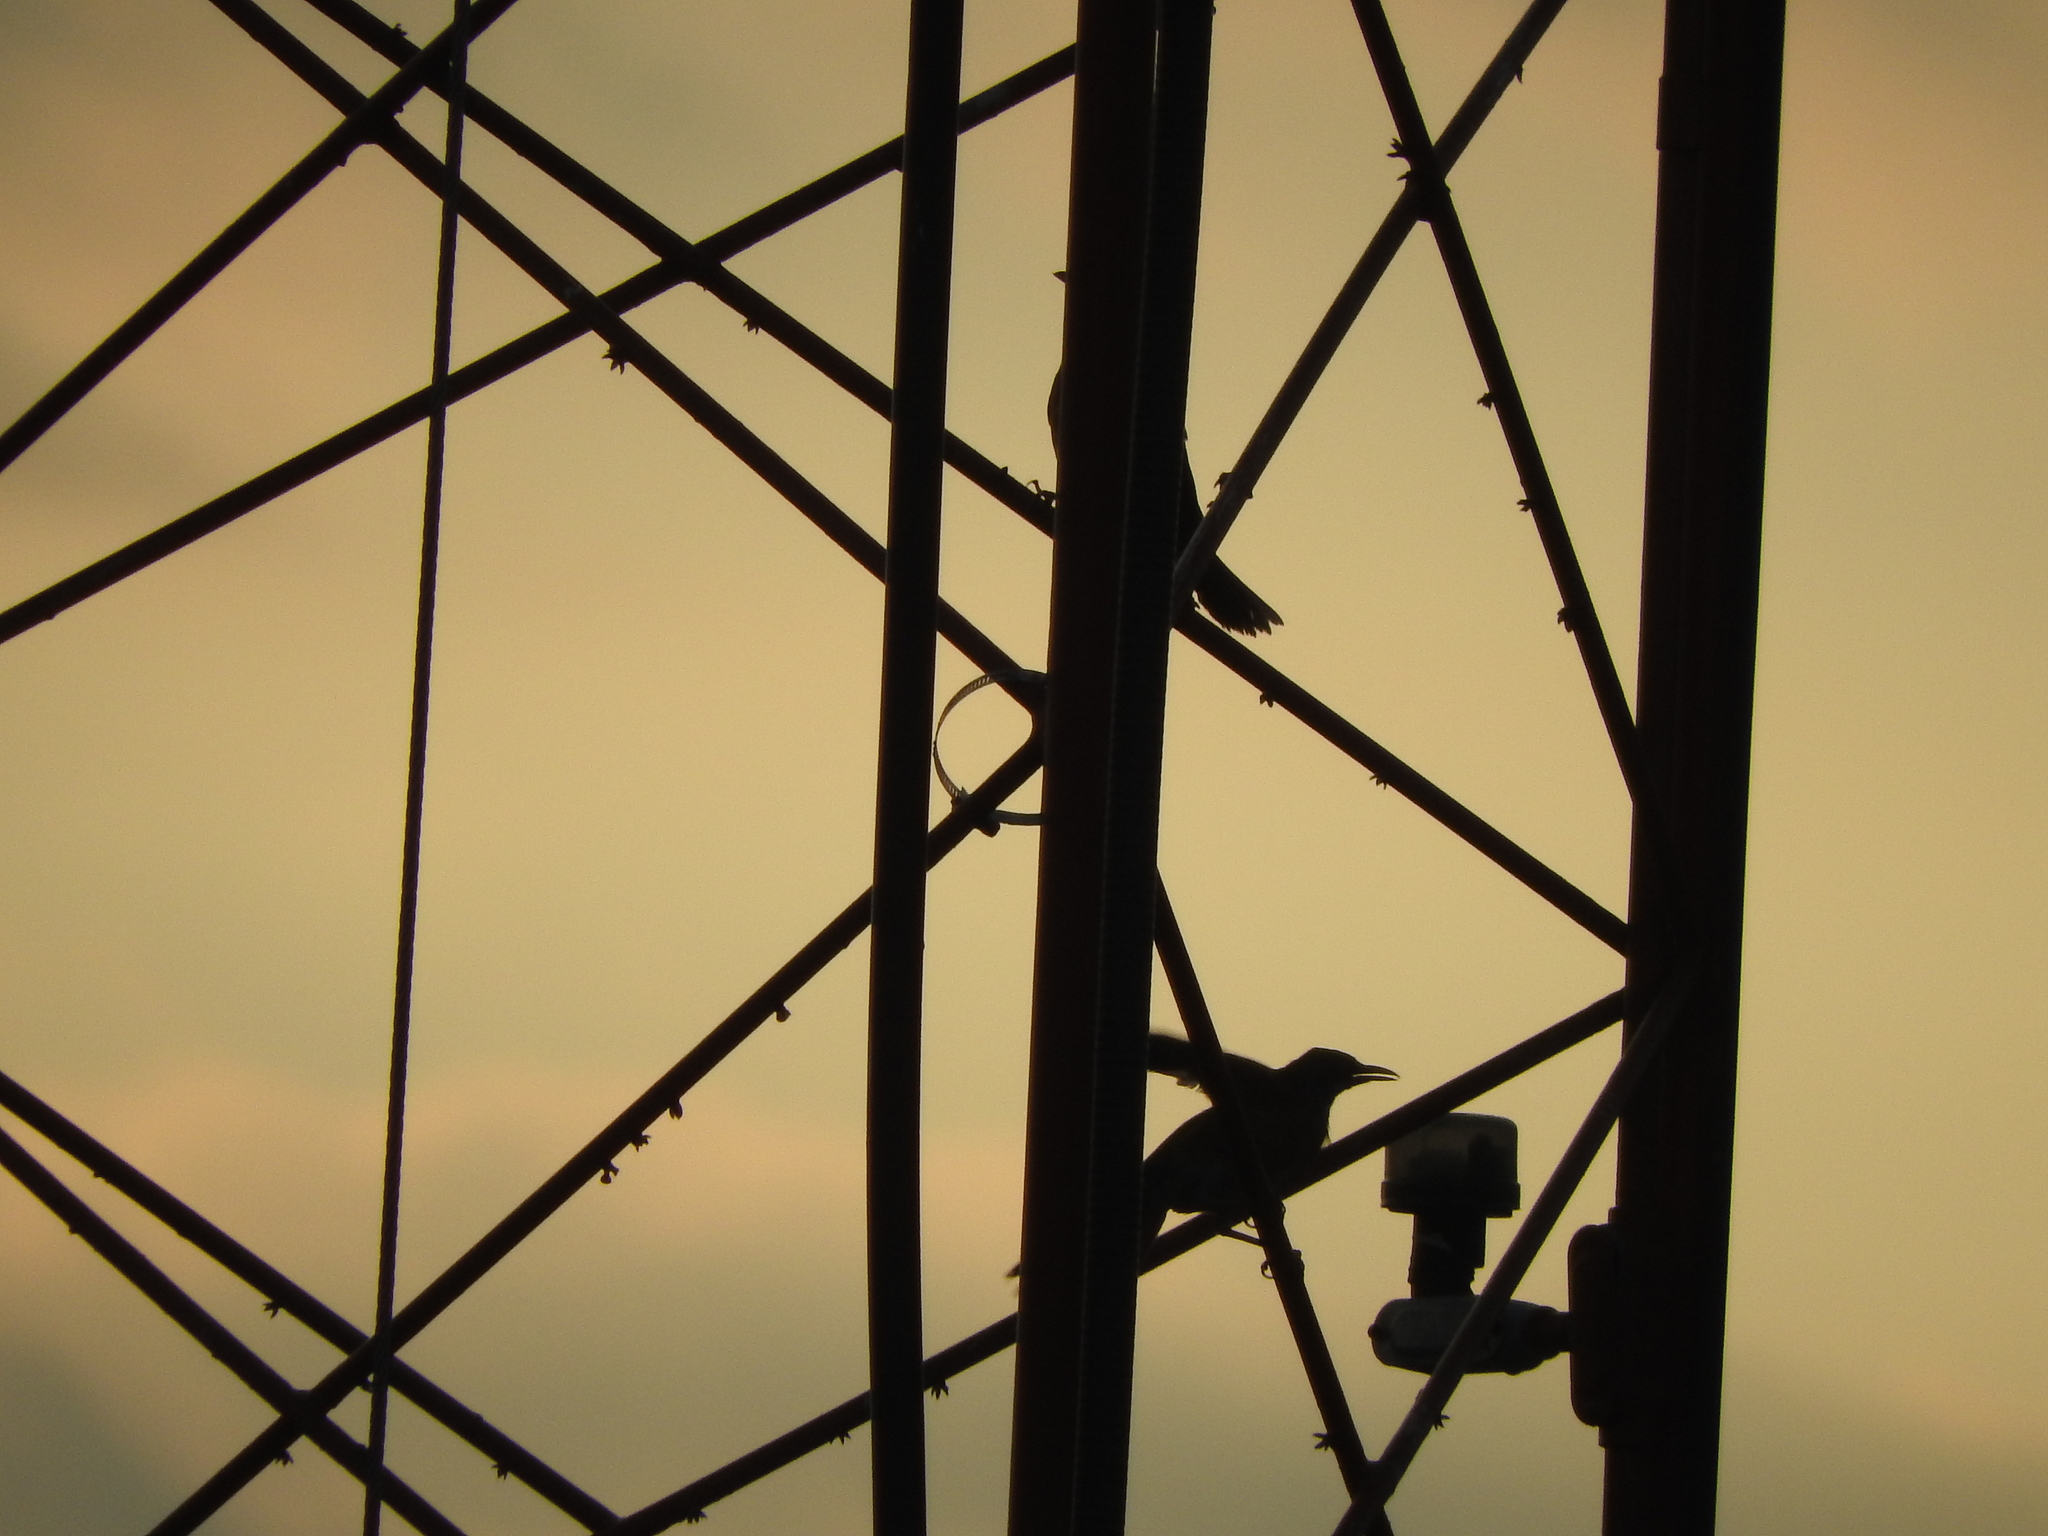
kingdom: Animalia
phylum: Chordata
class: Aves
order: Passeriformes
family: Icteridae
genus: Quiscalus
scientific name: Quiscalus mexicanus
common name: Great-tailed grackle
